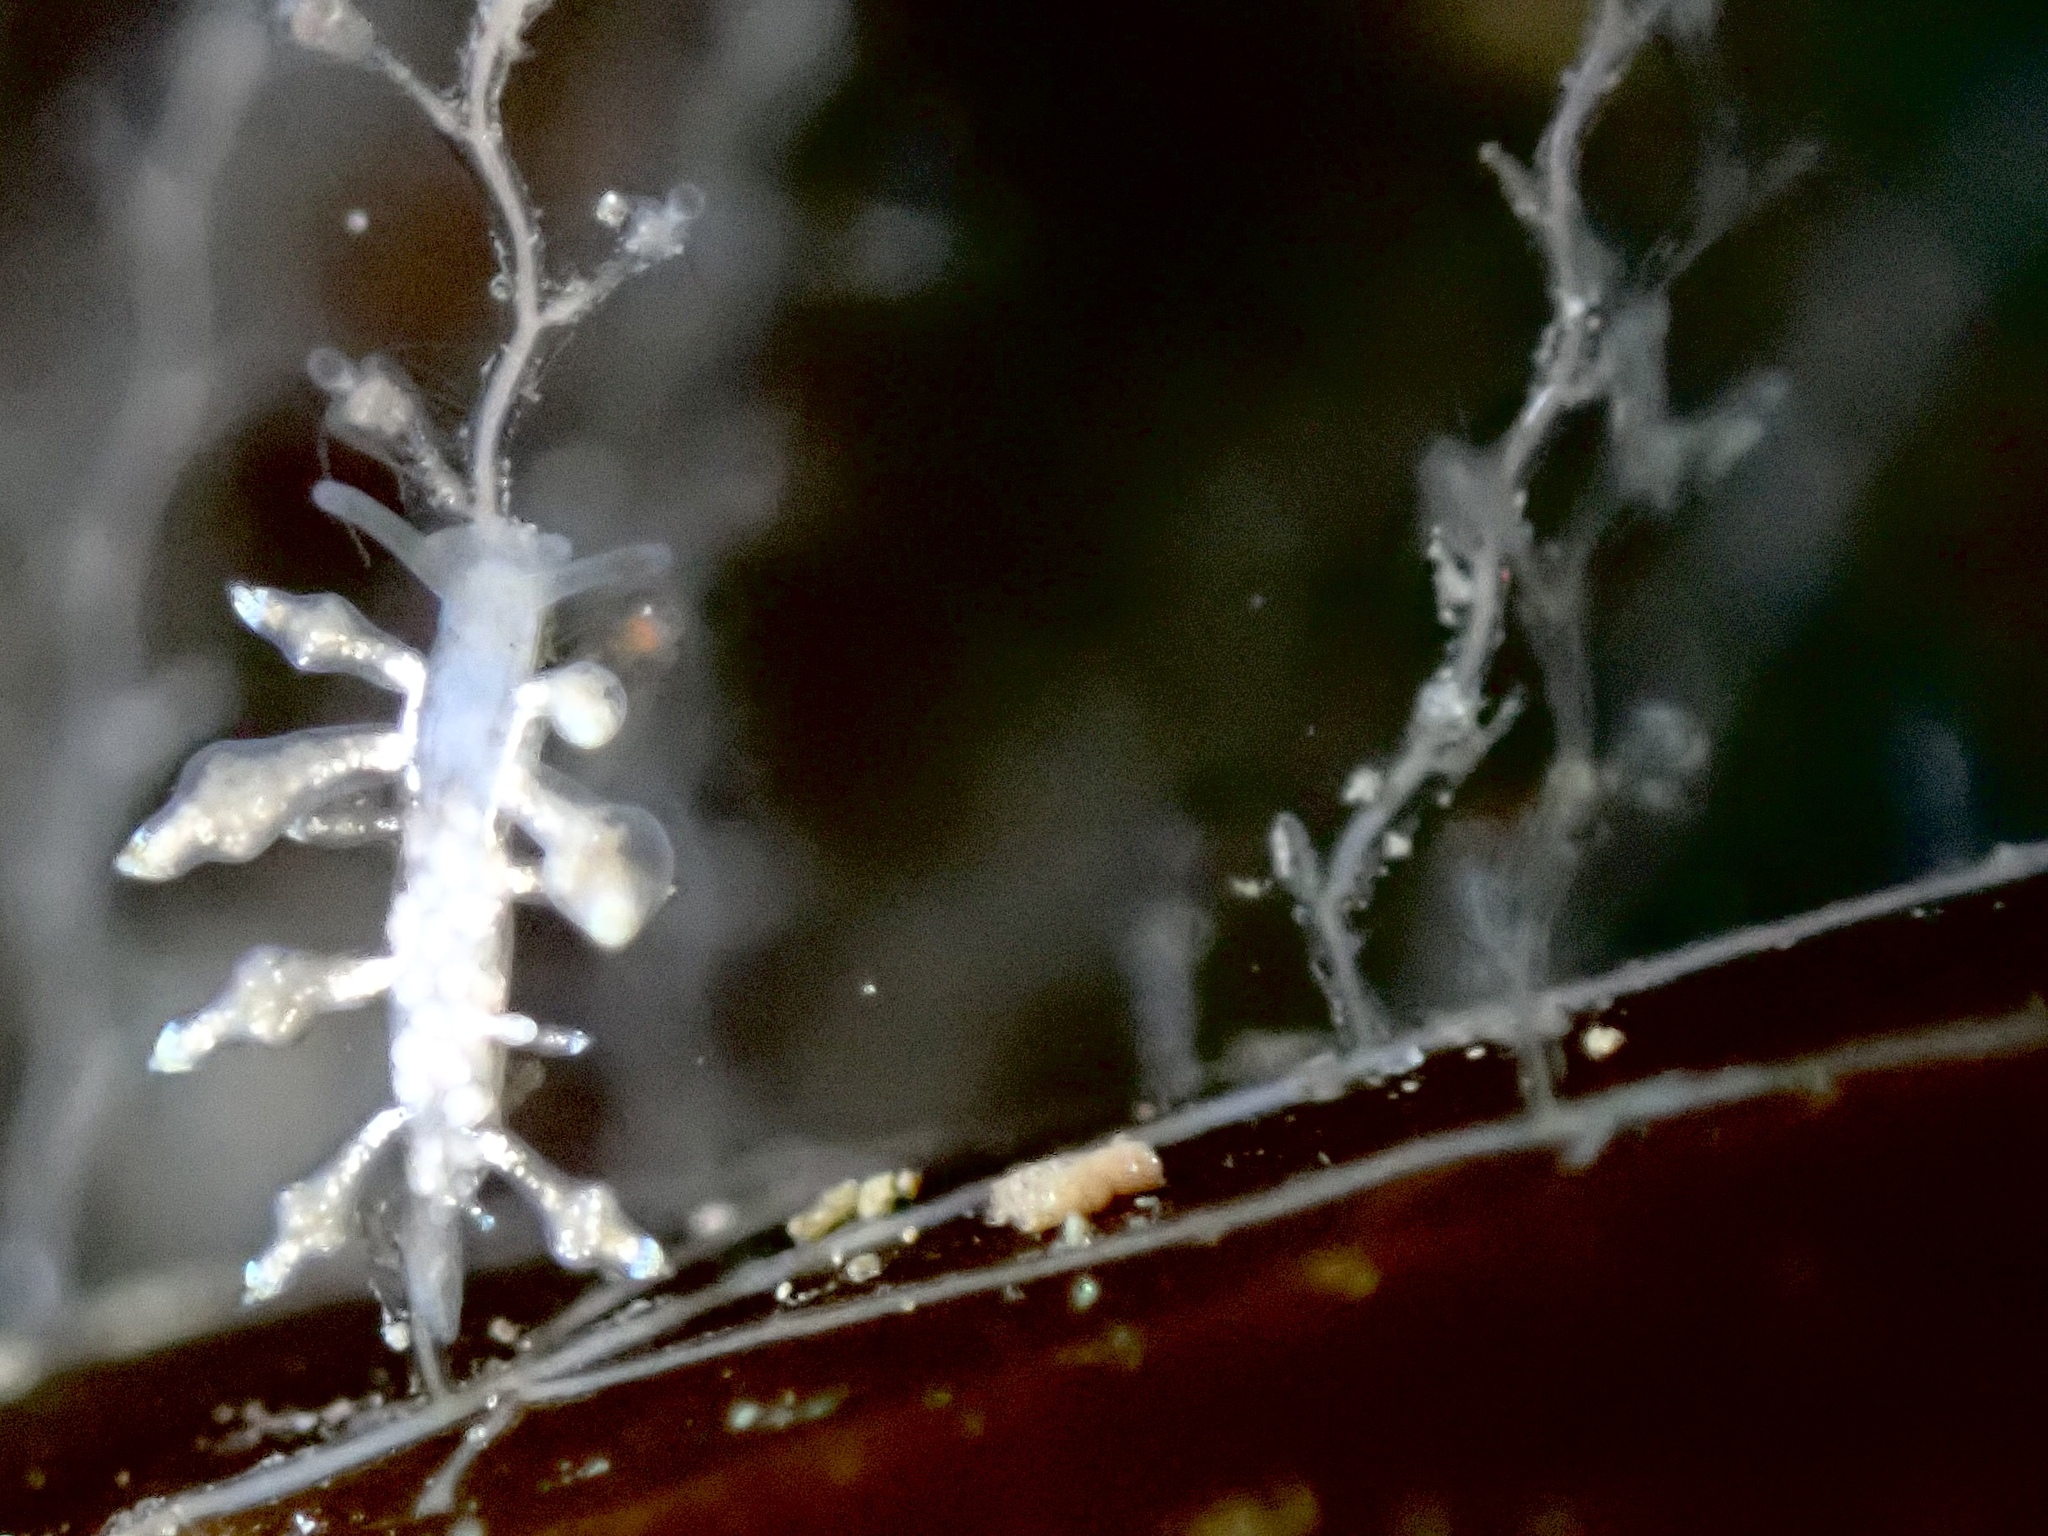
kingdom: Animalia
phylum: Mollusca
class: Gastropoda
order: Nudibranchia
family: Eubranchidae
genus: Eubranchus
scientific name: Eubranchus exiguus
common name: Balloon aeolis
